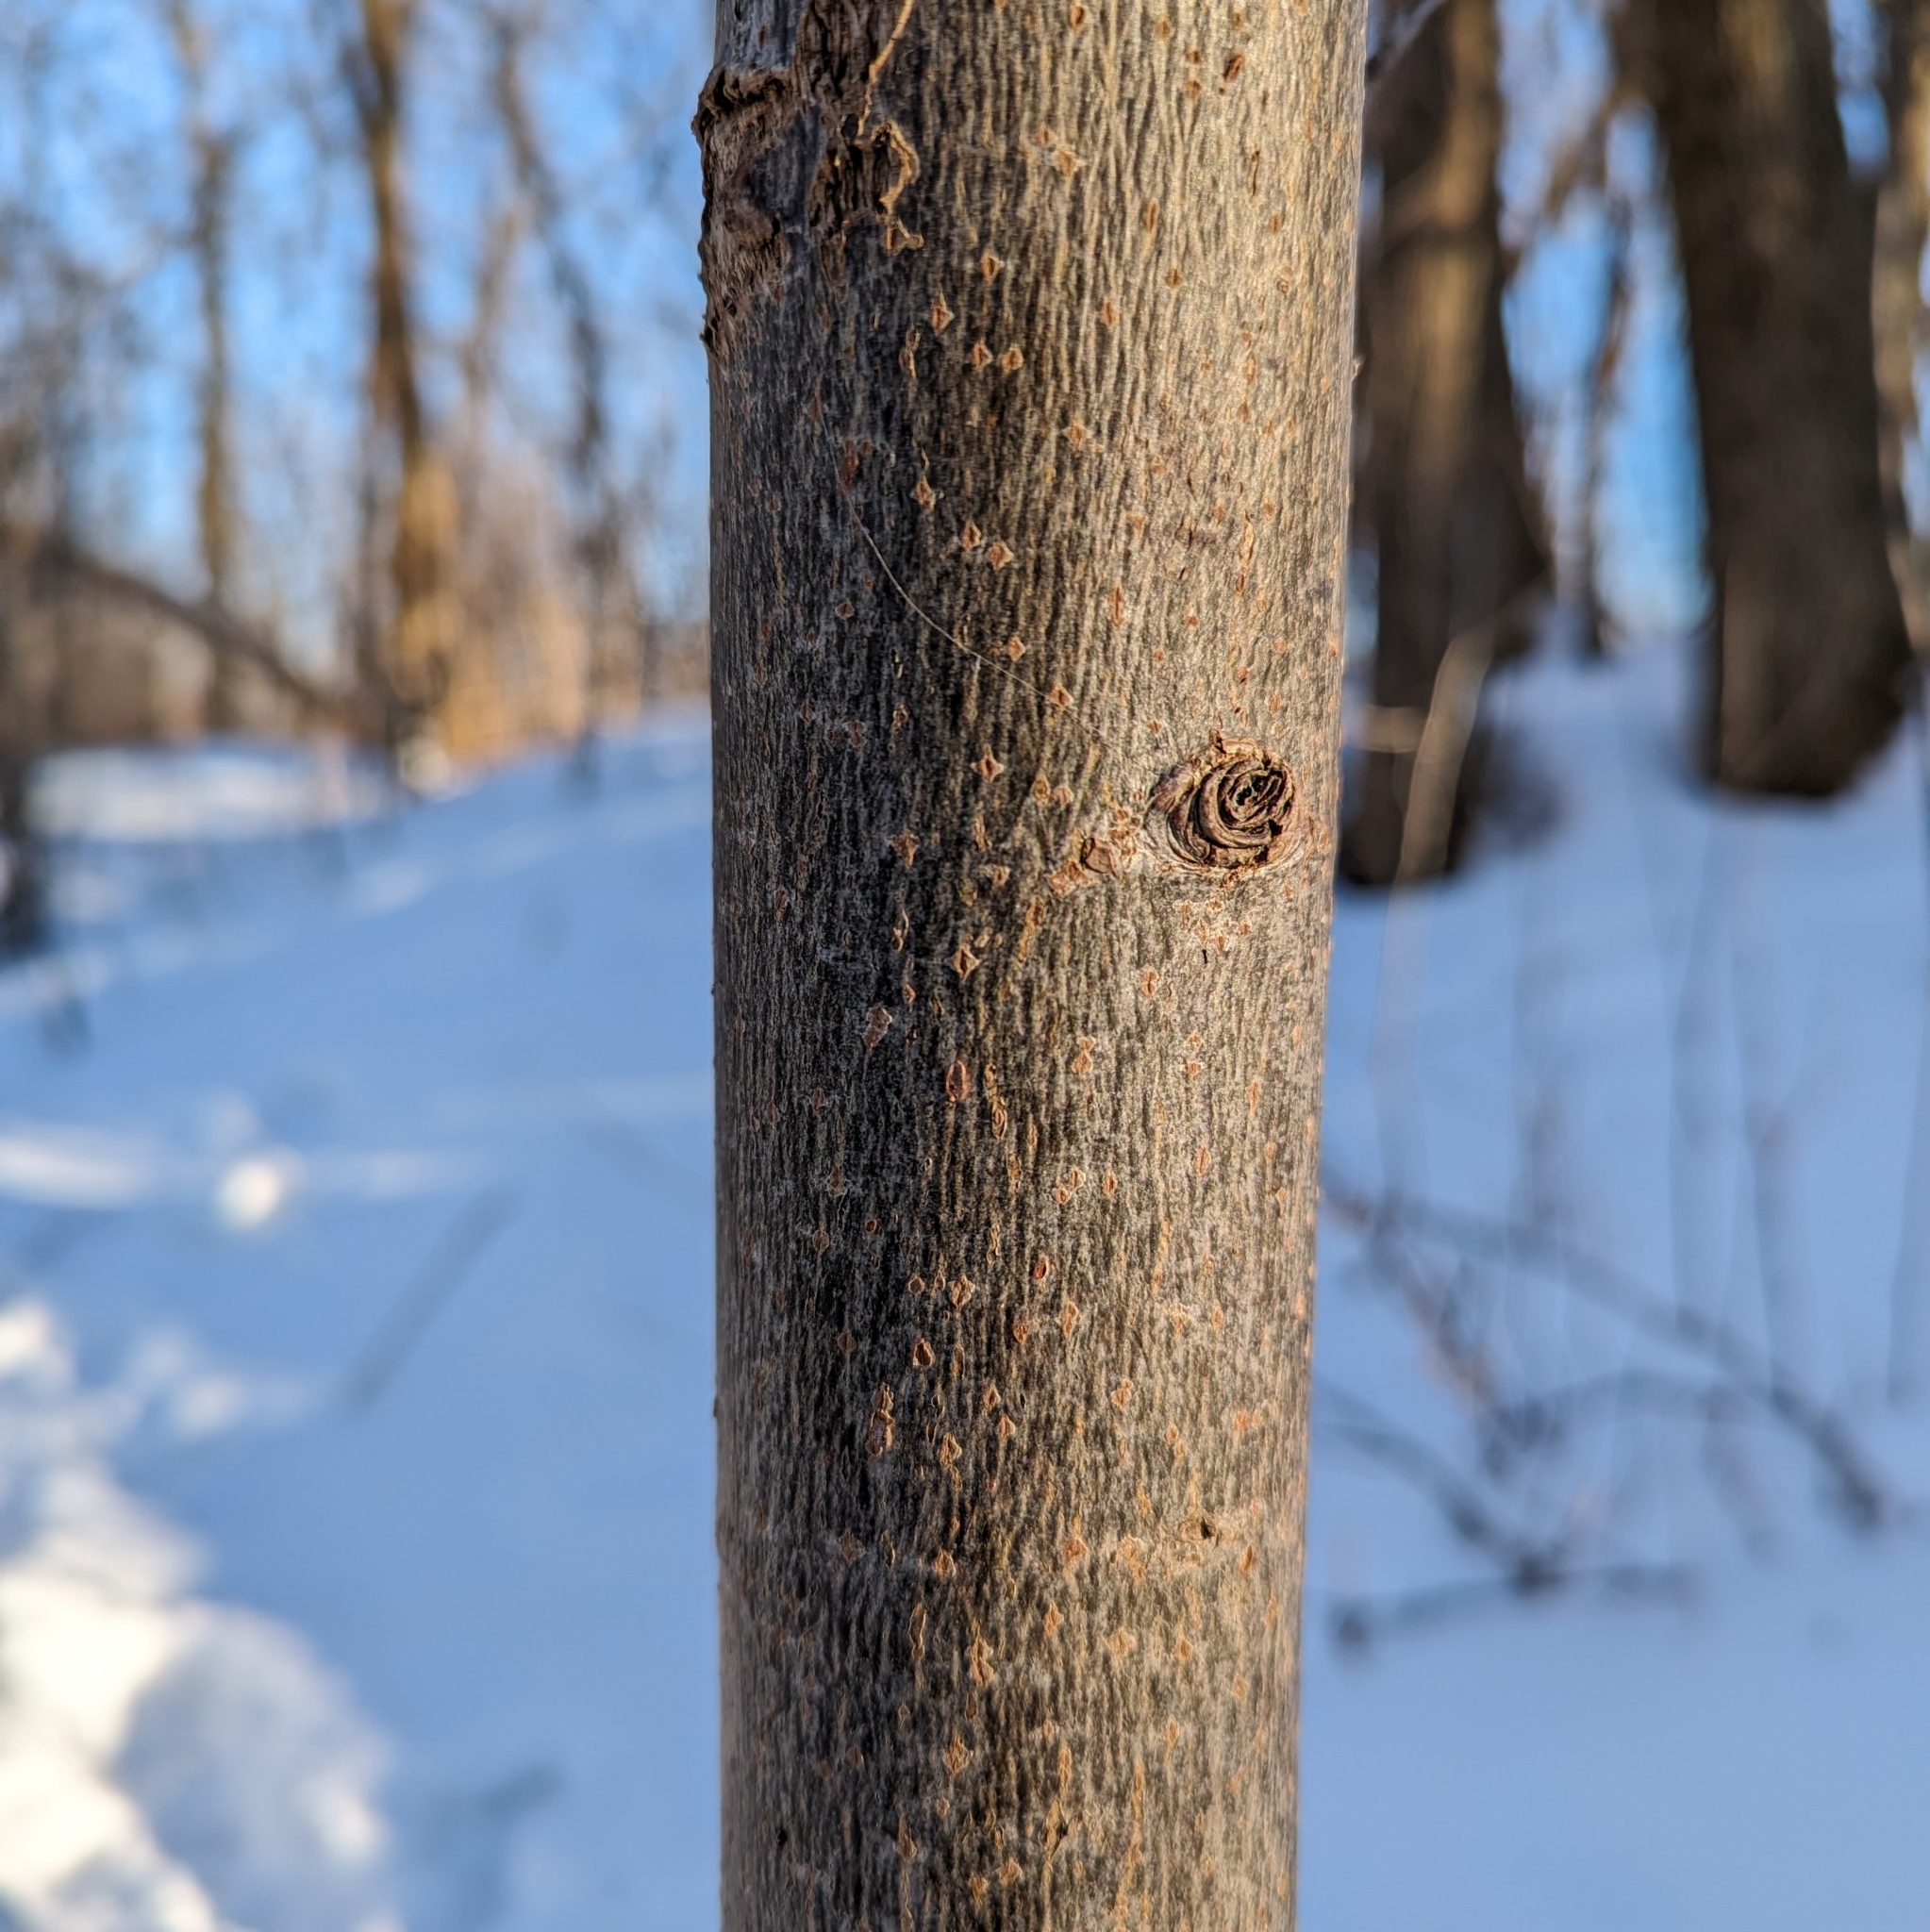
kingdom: Plantae
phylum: Tracheophyta
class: Magnoliopsida
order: Malvales
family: Malvaceae
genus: Tilia
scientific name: Tilia americana
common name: Basswood
